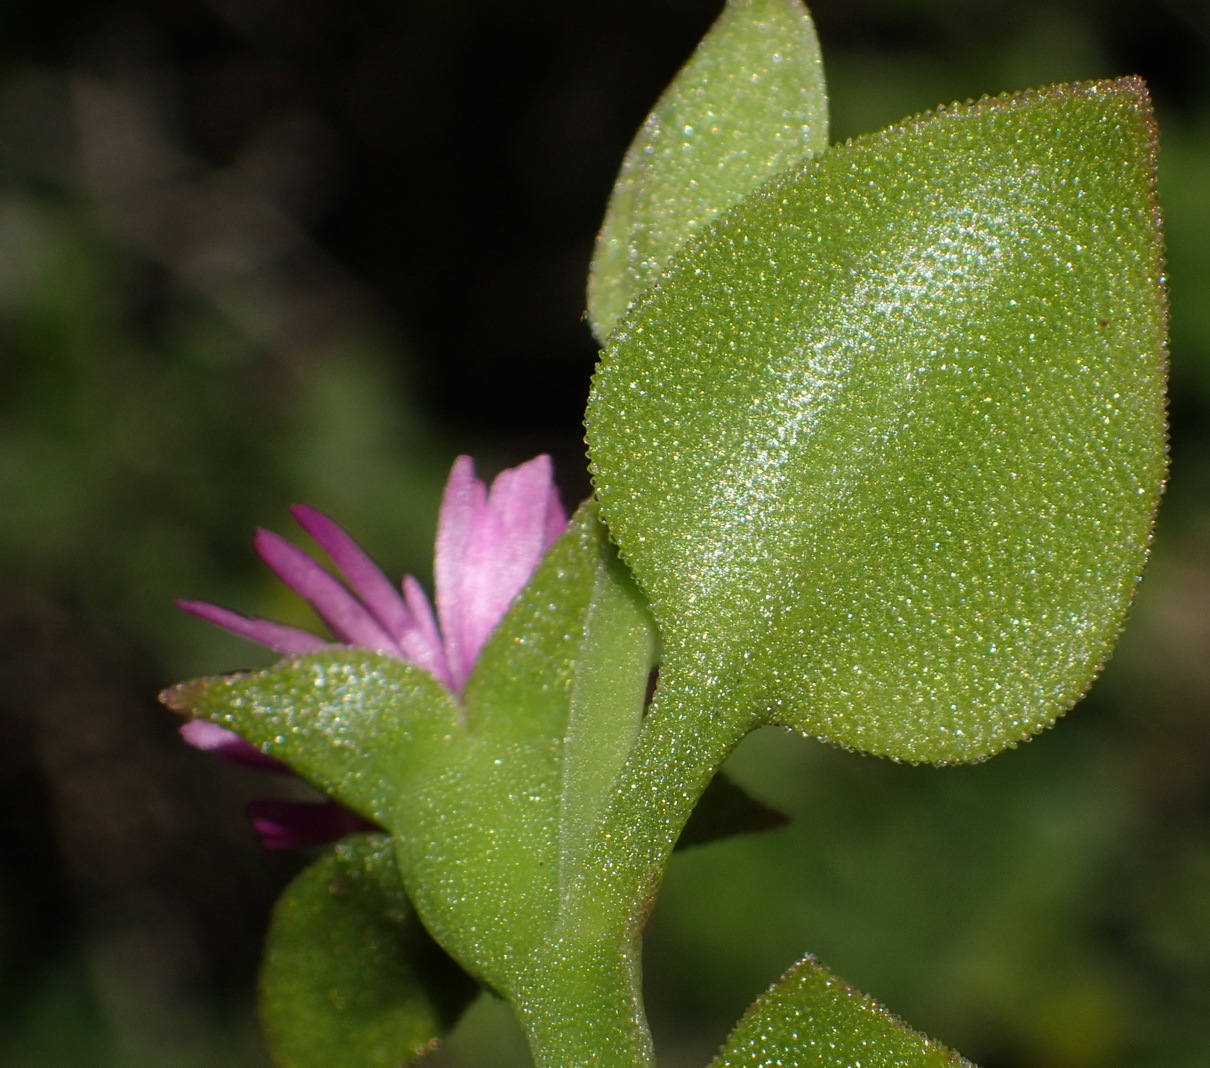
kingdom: Plantae
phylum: Tracheophyta
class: Magnoliopsida
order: Caryophyllales
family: Aizoaceae
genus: Mesembryanthemum
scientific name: Mesembryanthemum cordifolium
